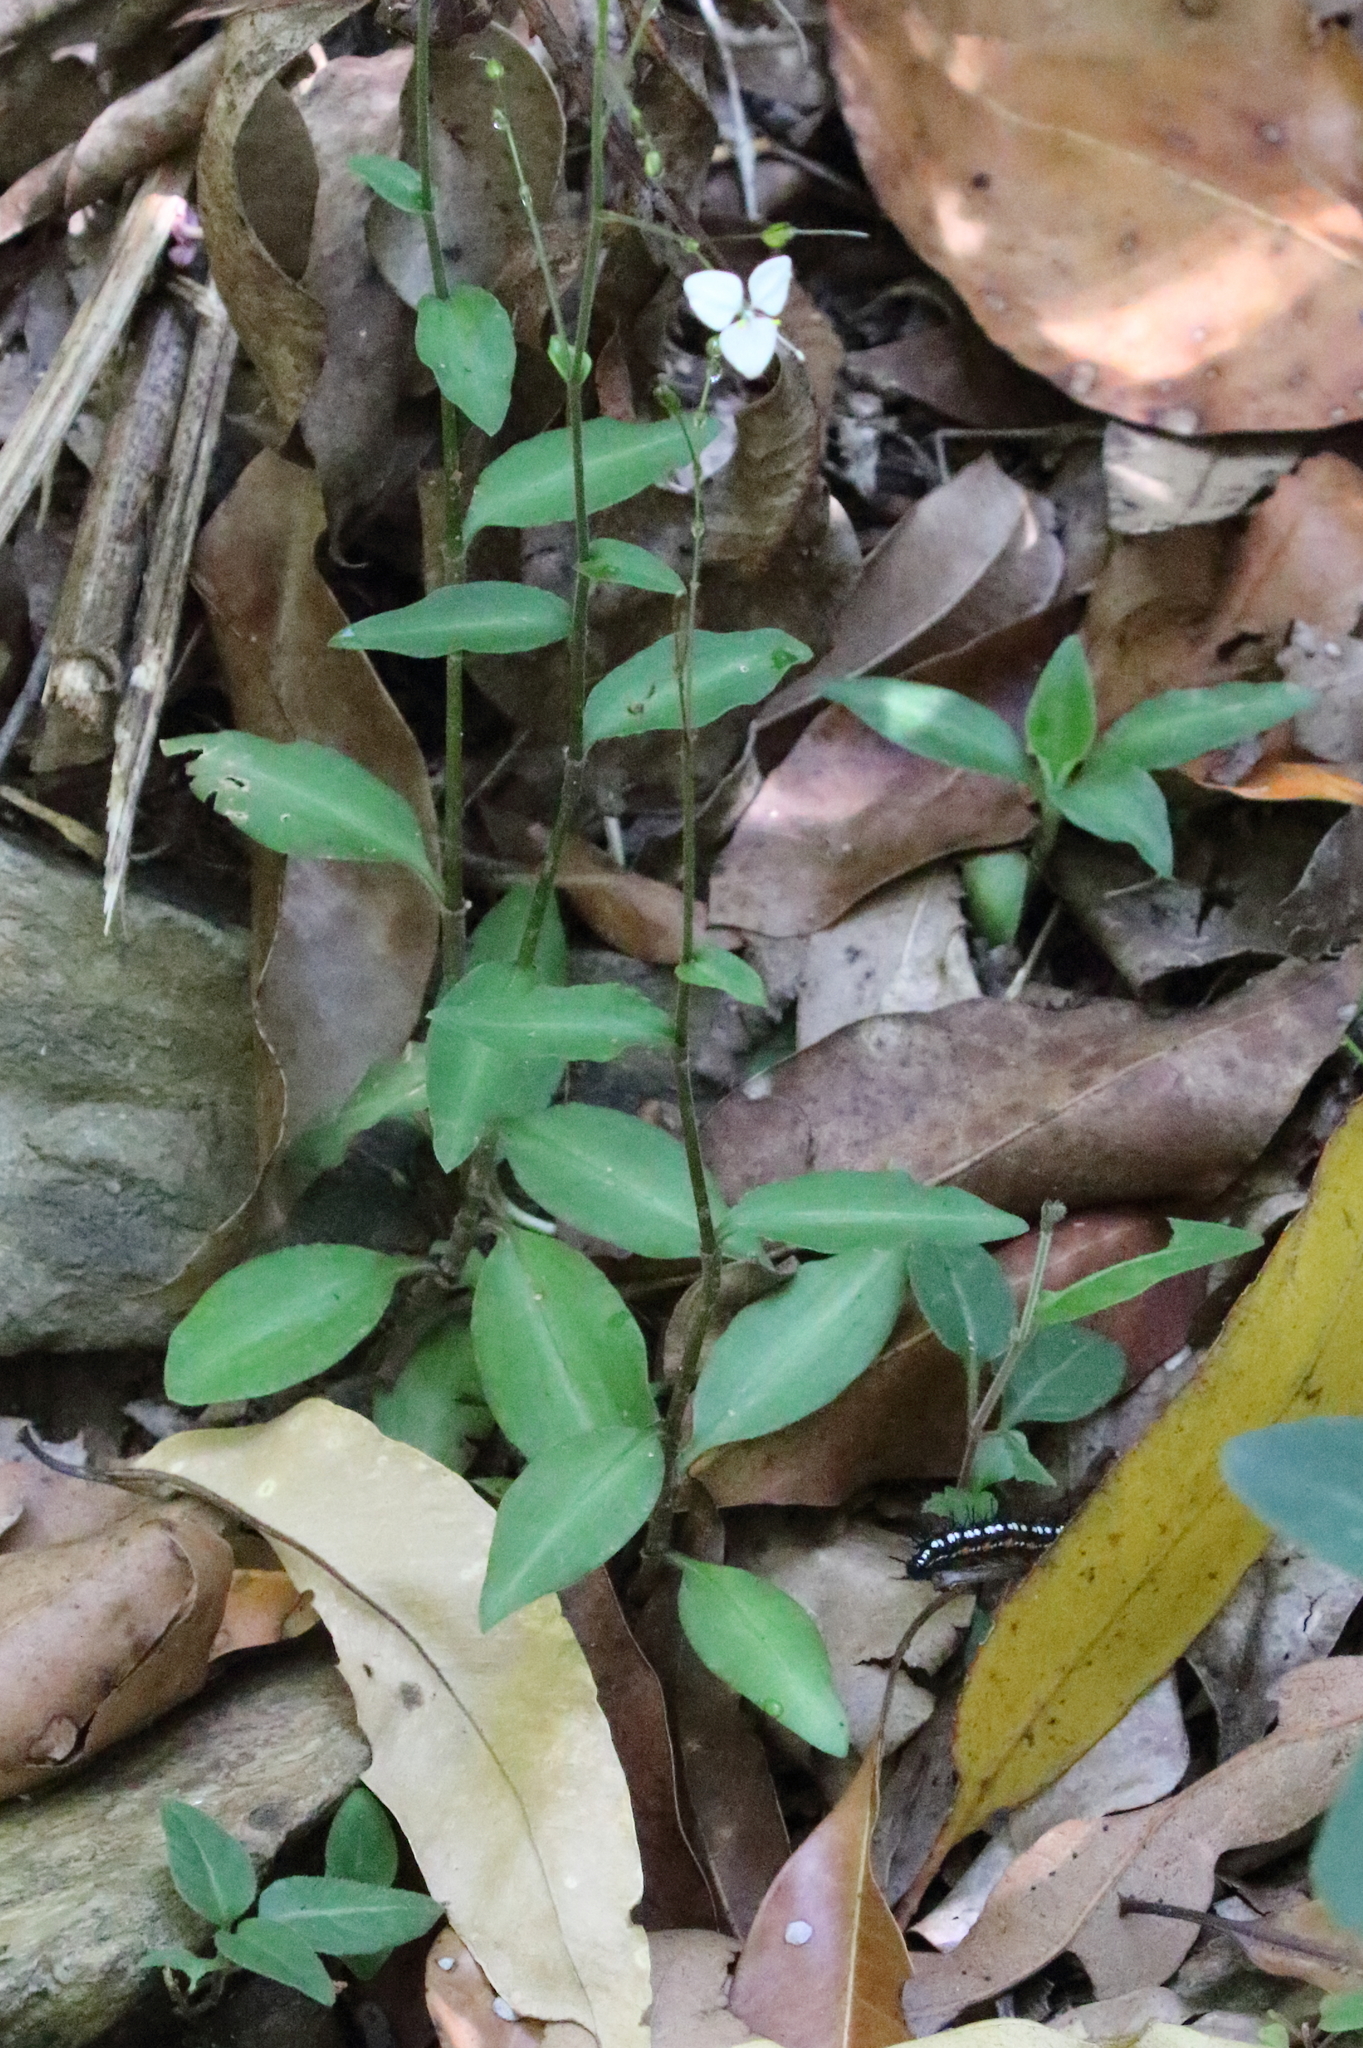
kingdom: Plantae
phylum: Tracheophyta
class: Liliopsida
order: Commelinales
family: Commelinaceae
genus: Aneilema
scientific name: Aneilema acuminatum
